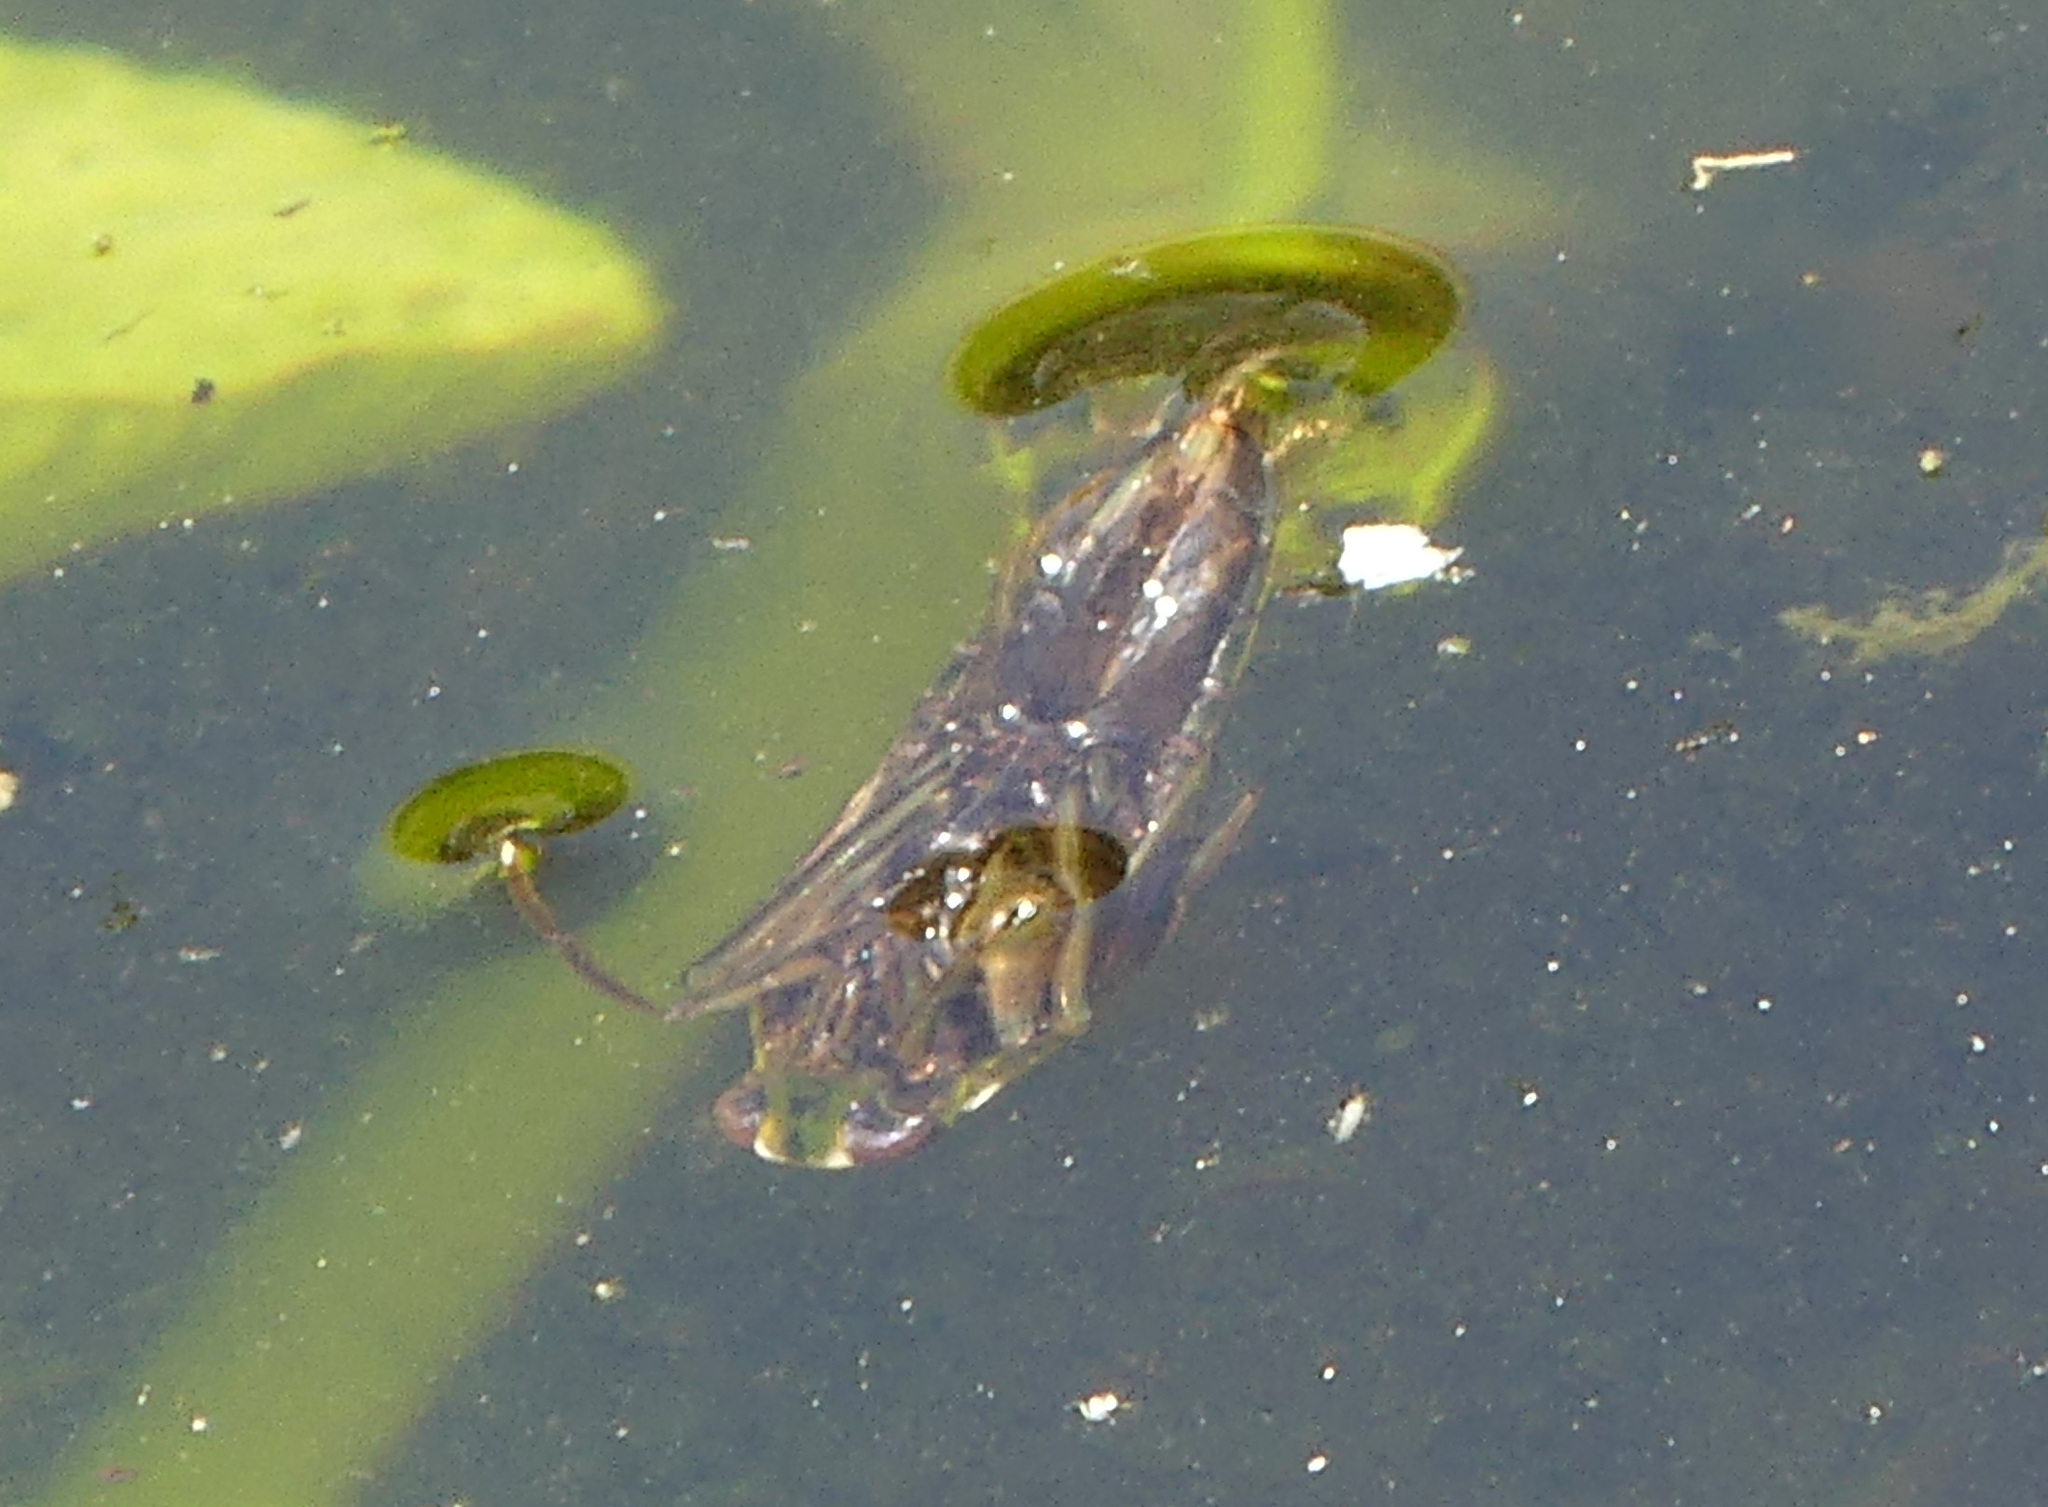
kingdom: Animalia
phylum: Arthropoda
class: Insecta
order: Hemiptera
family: Notonectidae
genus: Notonecta
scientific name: Notonecta
